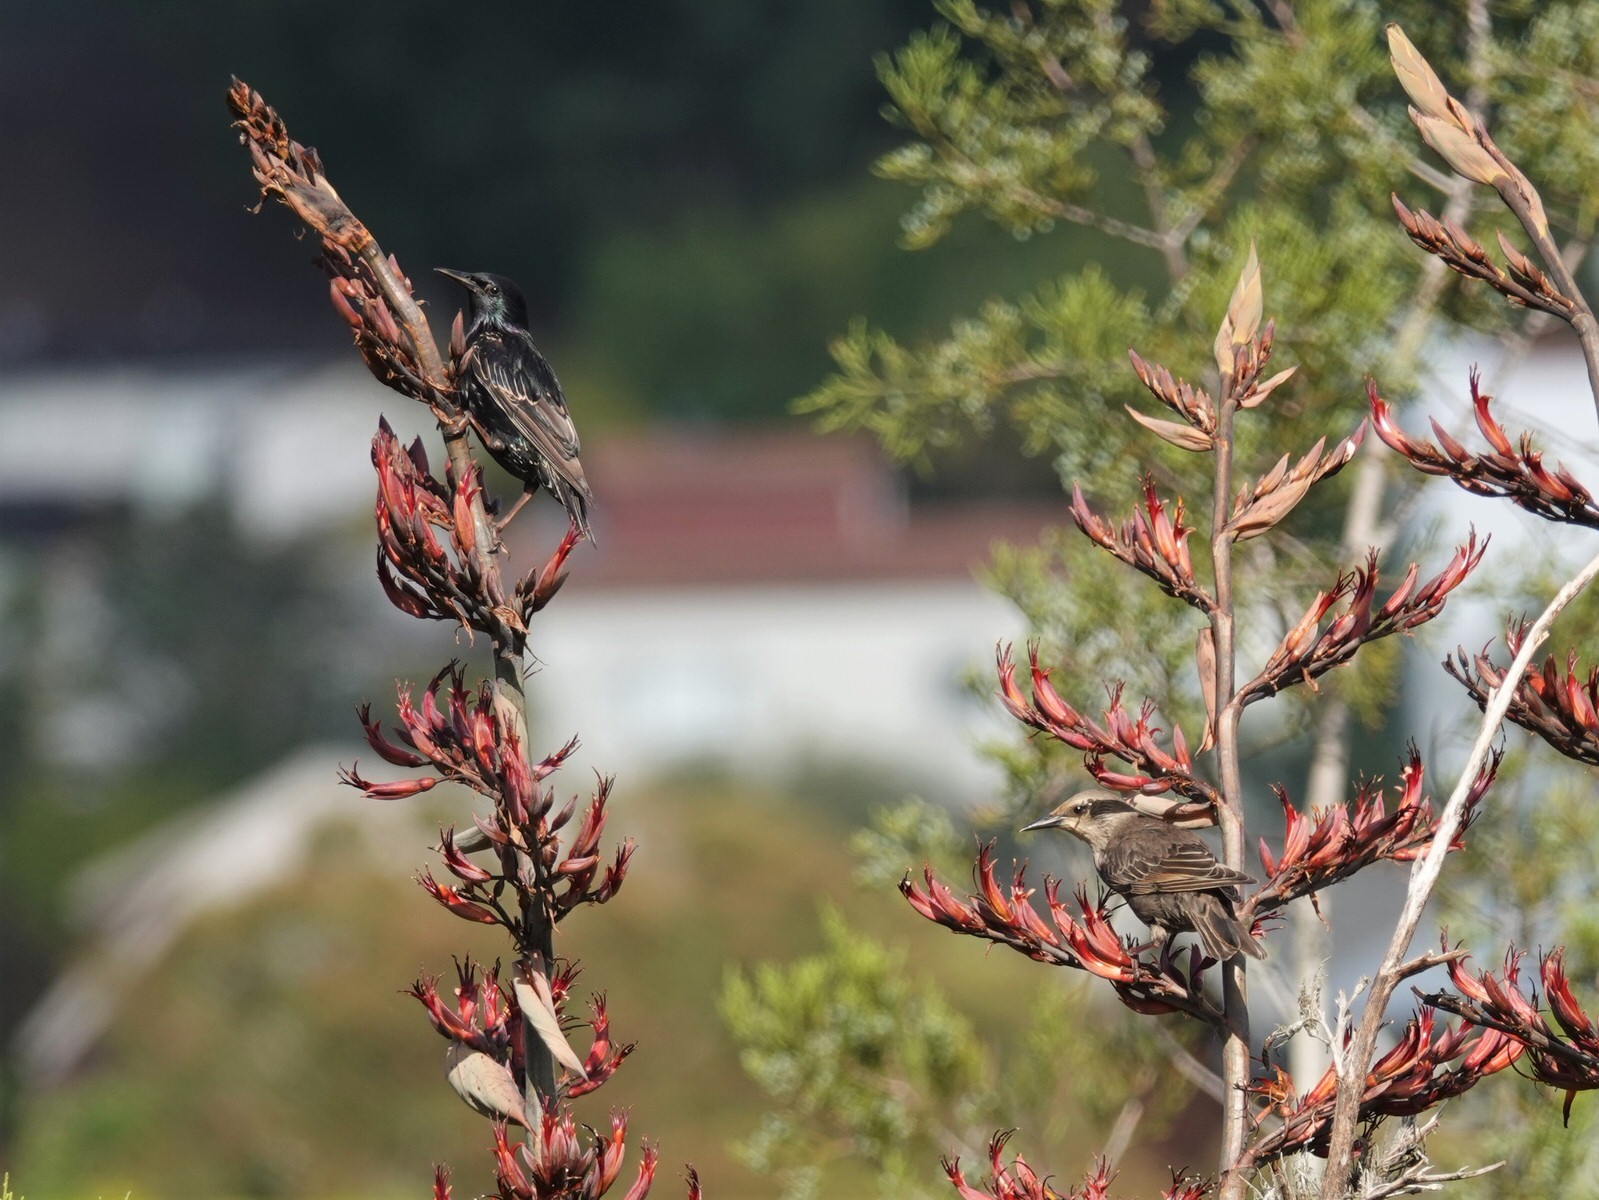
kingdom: Animalia
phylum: Chordata
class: Aves
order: Passeriformes
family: Sturnidae
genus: Sturnus
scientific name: Sturnus vulgaris
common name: Common starling
